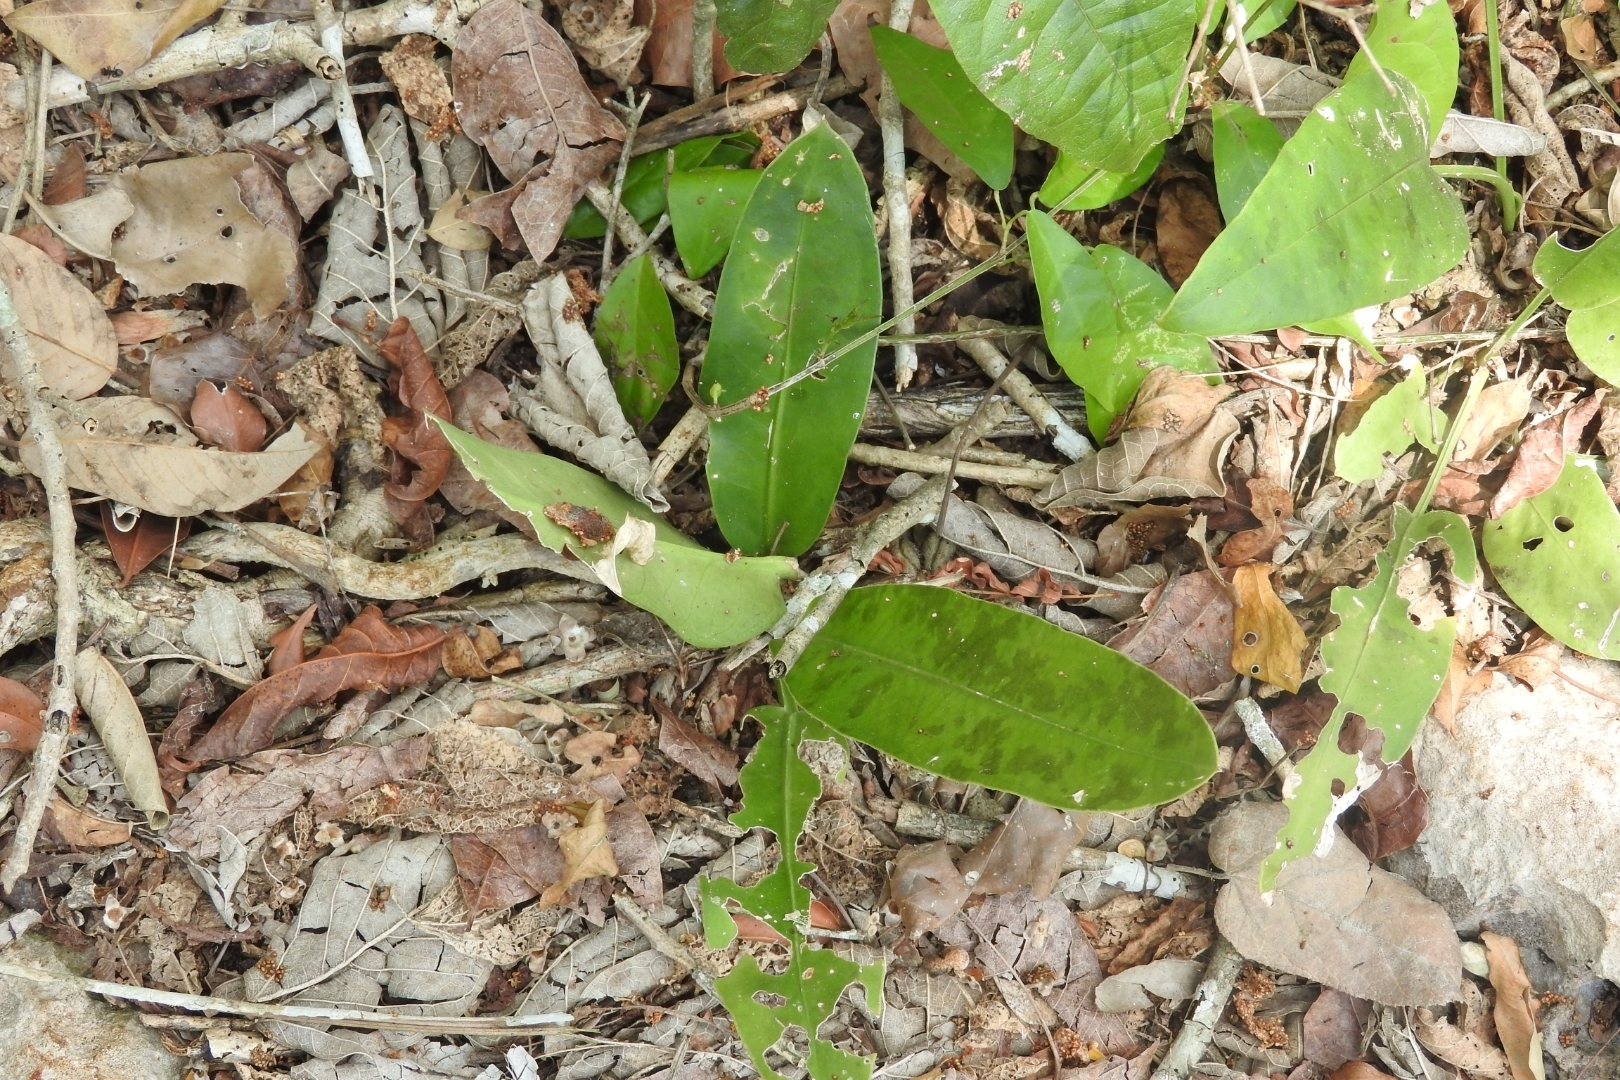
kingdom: Plantae
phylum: Tracheophyta
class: Liliopsida
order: Asparagales
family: Asparagaceae
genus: Dracaena
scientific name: Dracaena hyacinthoides
